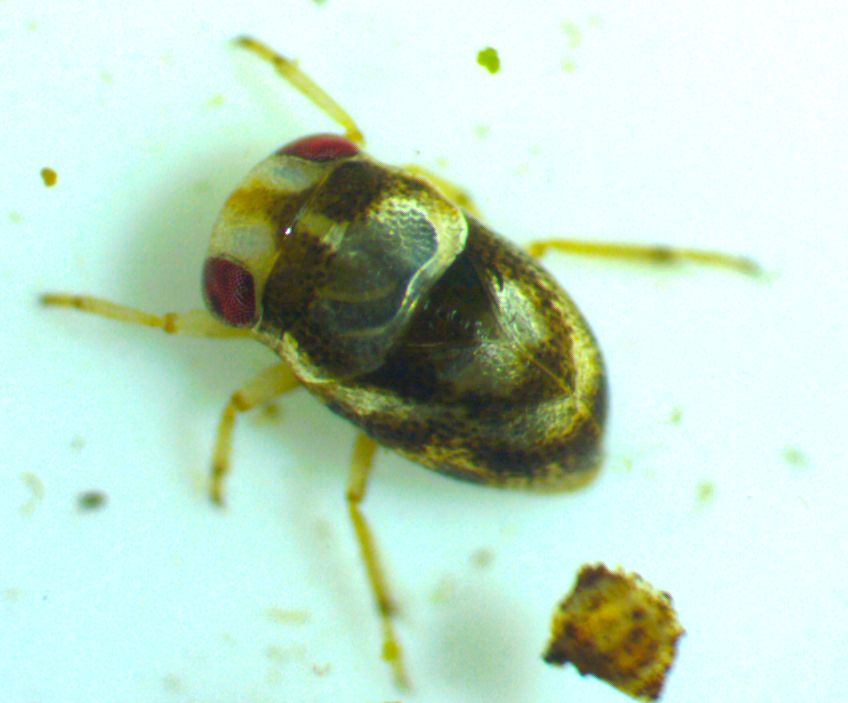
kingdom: Animalia
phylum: Arthropoda
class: Insecta
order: Hemiptera
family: Pleidae
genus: Neoplea
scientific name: Neoplea striola
